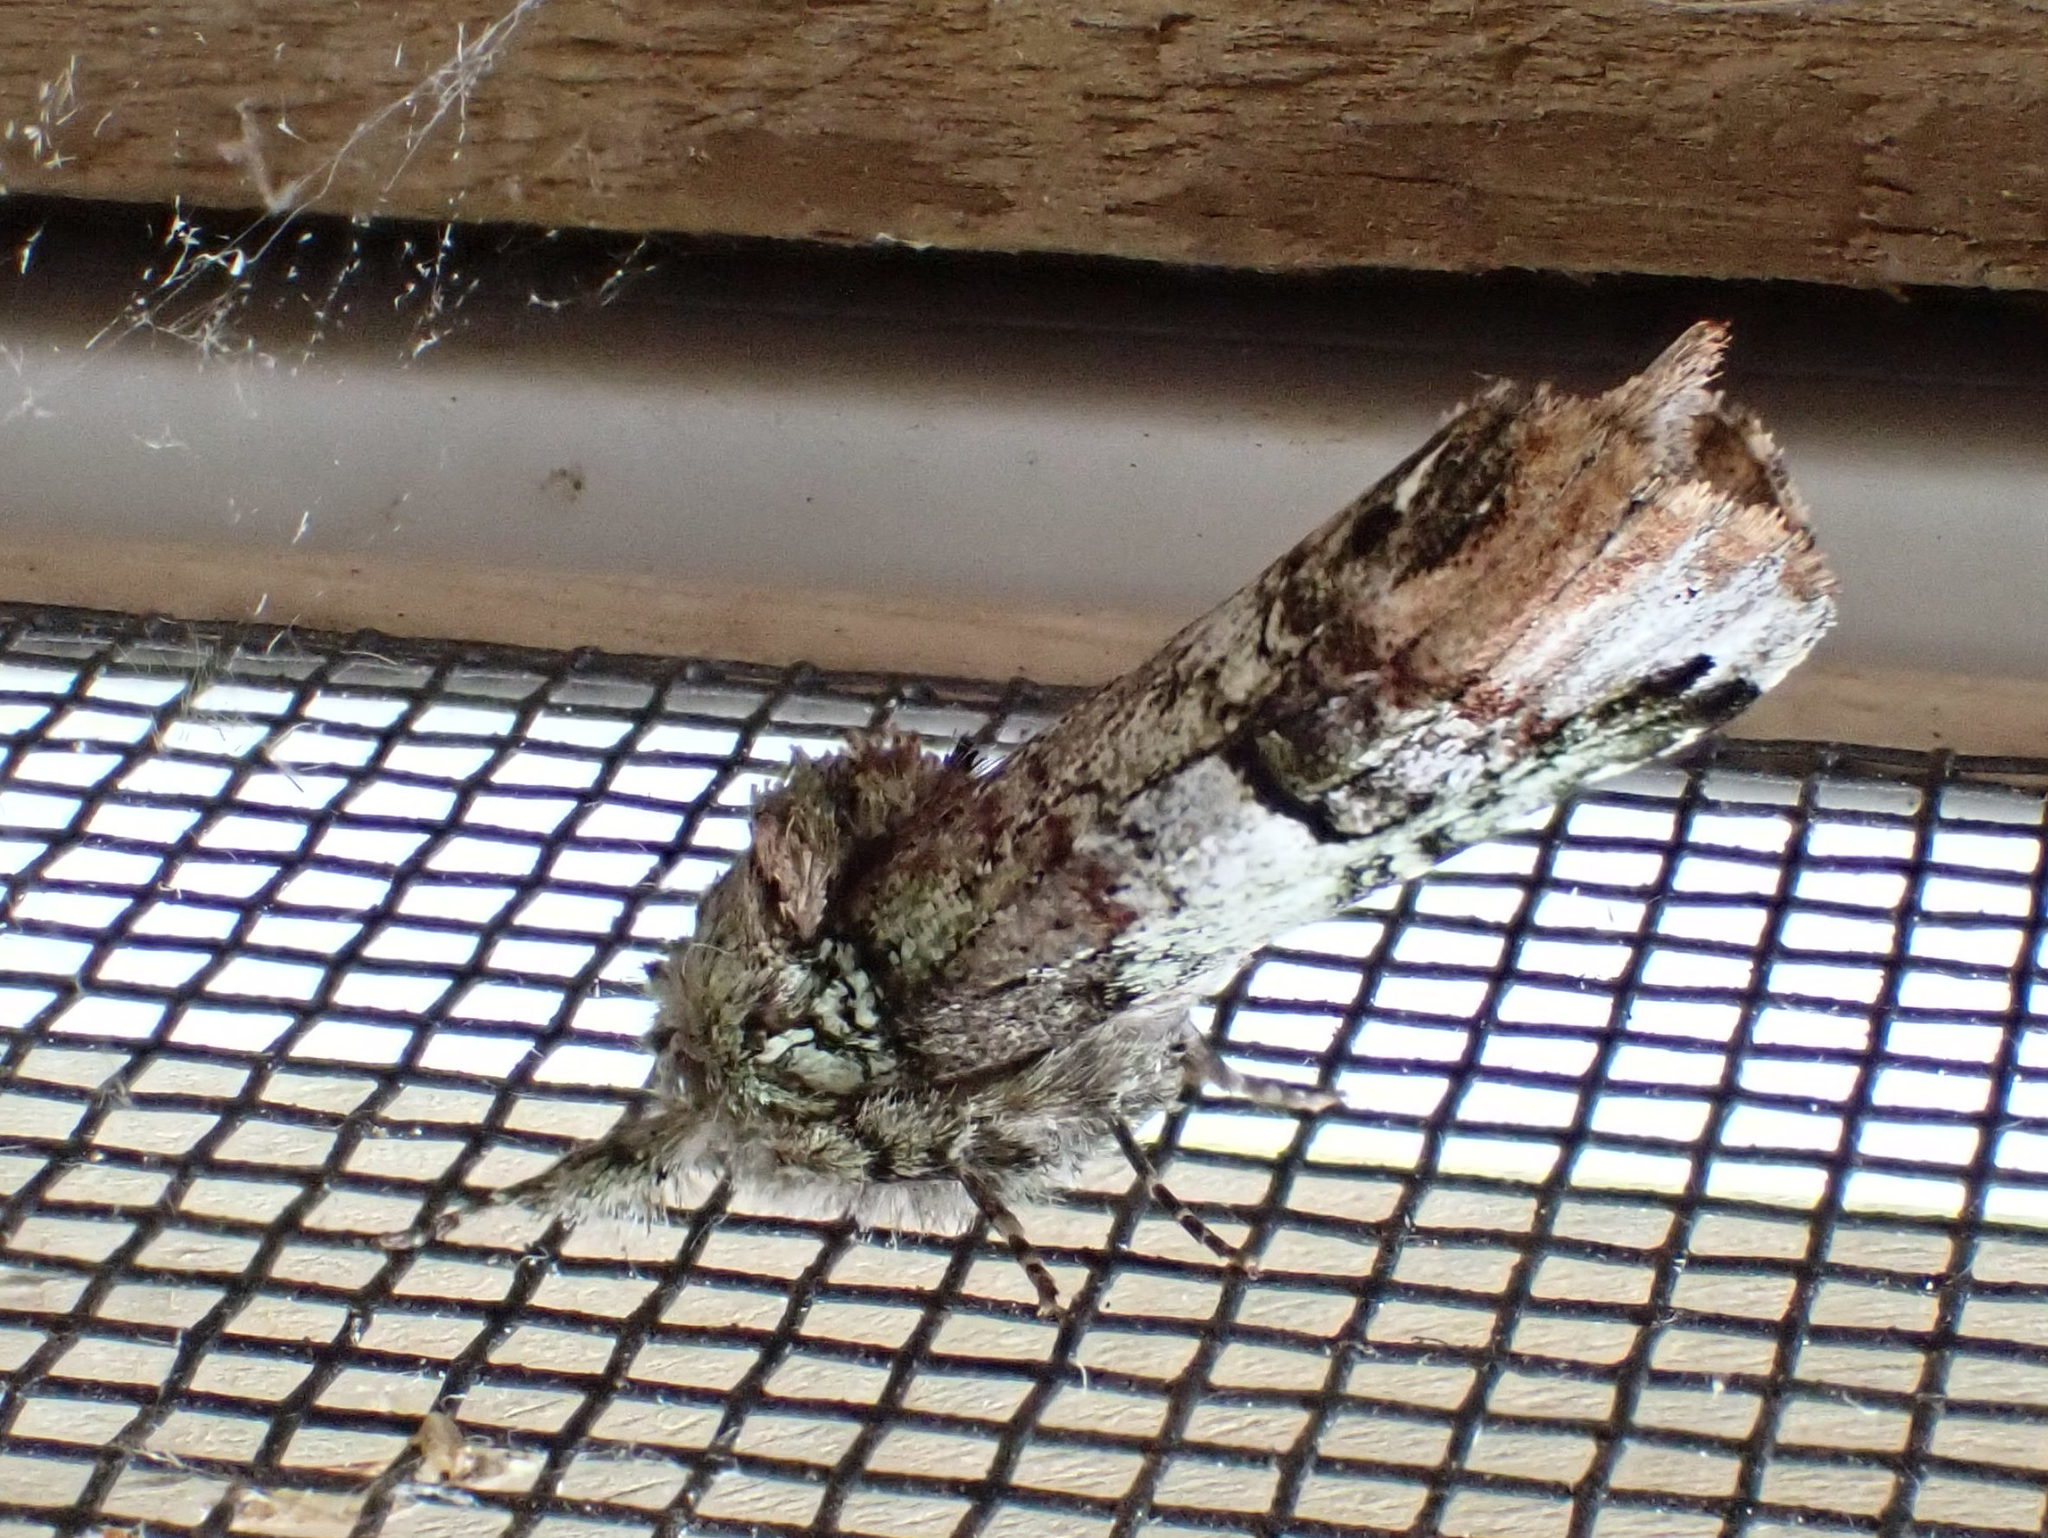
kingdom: Animalia
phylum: Arthropoda
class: Insecta
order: Lepidoptera
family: Notodontidae
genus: Schizura
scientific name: Schizura
